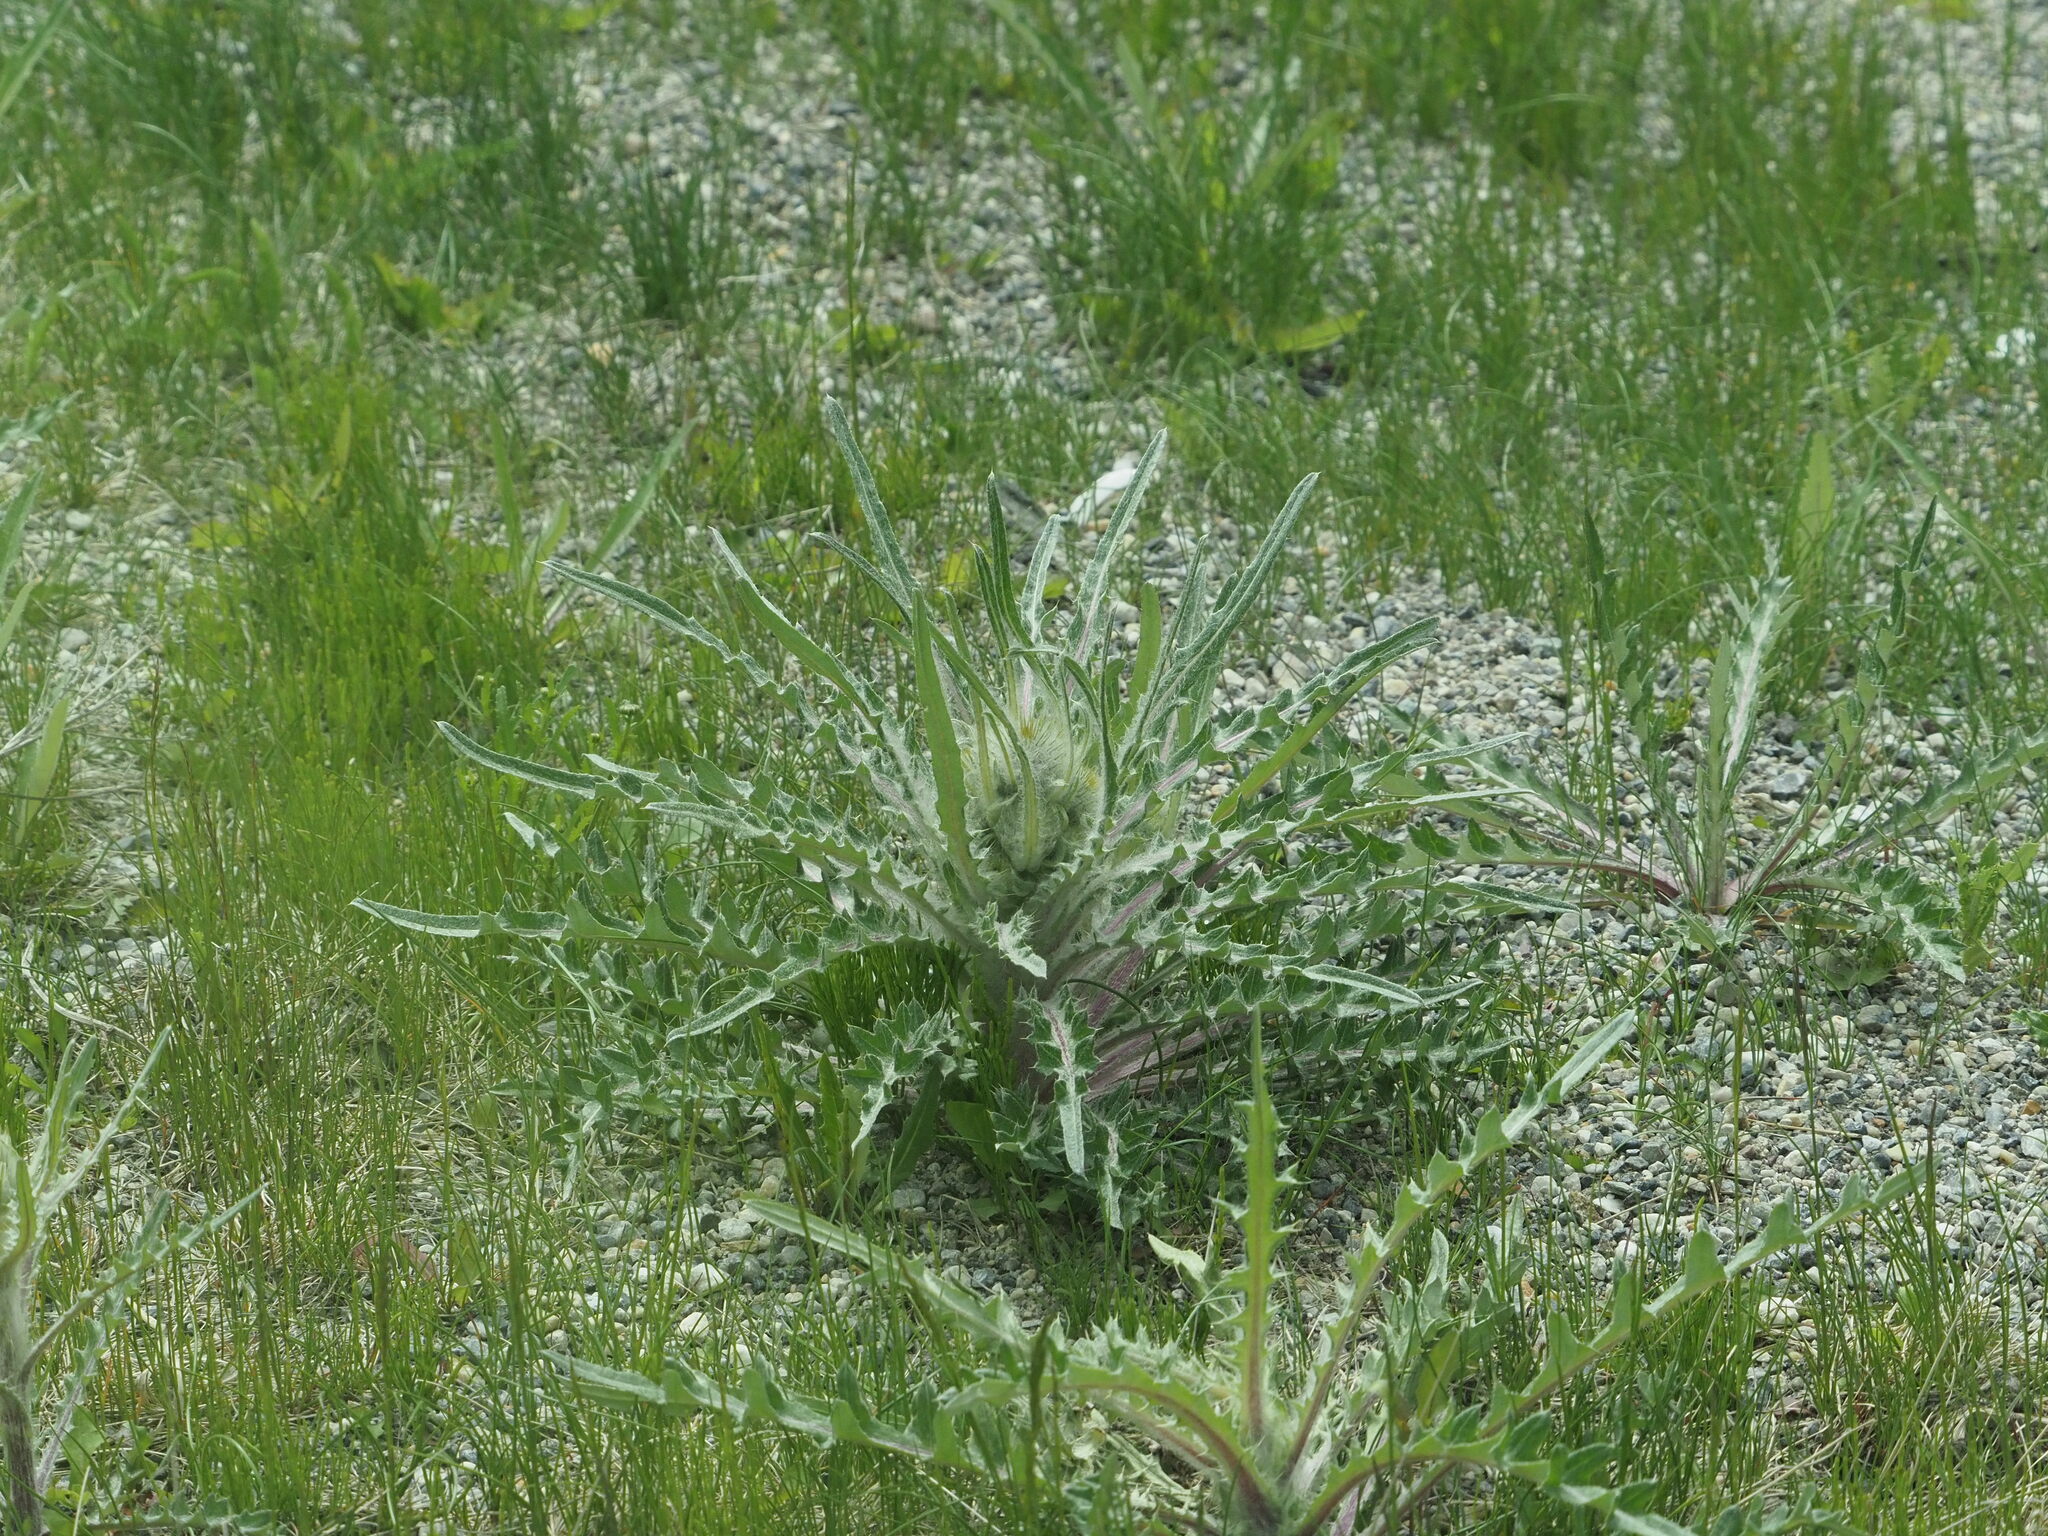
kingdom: Plantae
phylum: Tracheophyta
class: Magnoliopsida
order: Asterales
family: Asteraceae
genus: Cirsium
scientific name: Cirsium hookerianum
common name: Hooker's thistle
